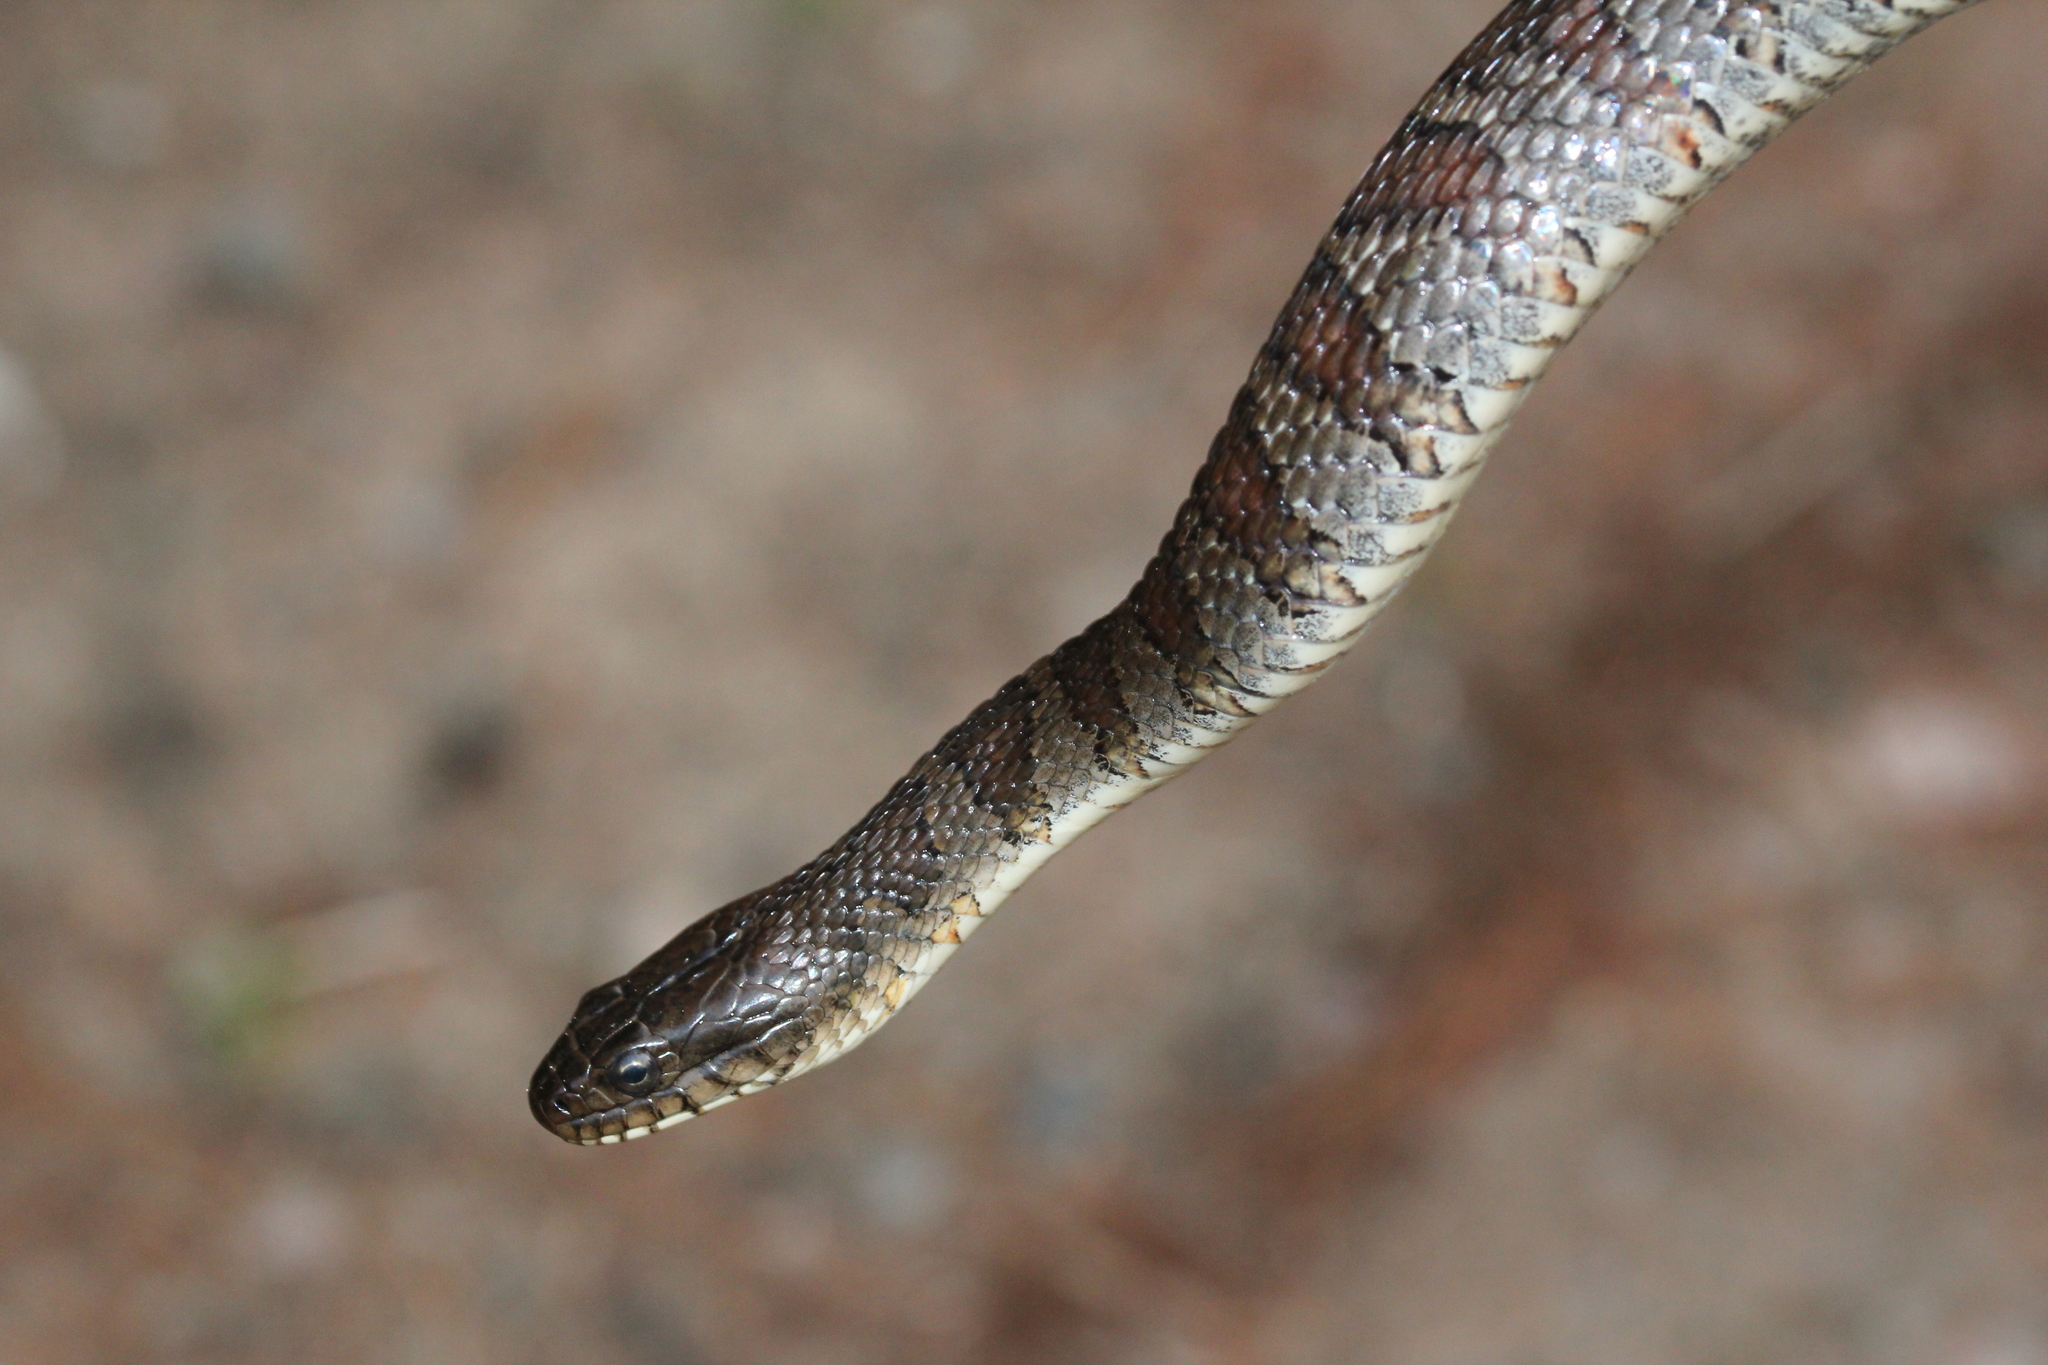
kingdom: Animalia
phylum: Chordata
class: Squamata
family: Colubridae
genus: Nerodia
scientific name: Nerodia sipedon
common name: Northern water snake
